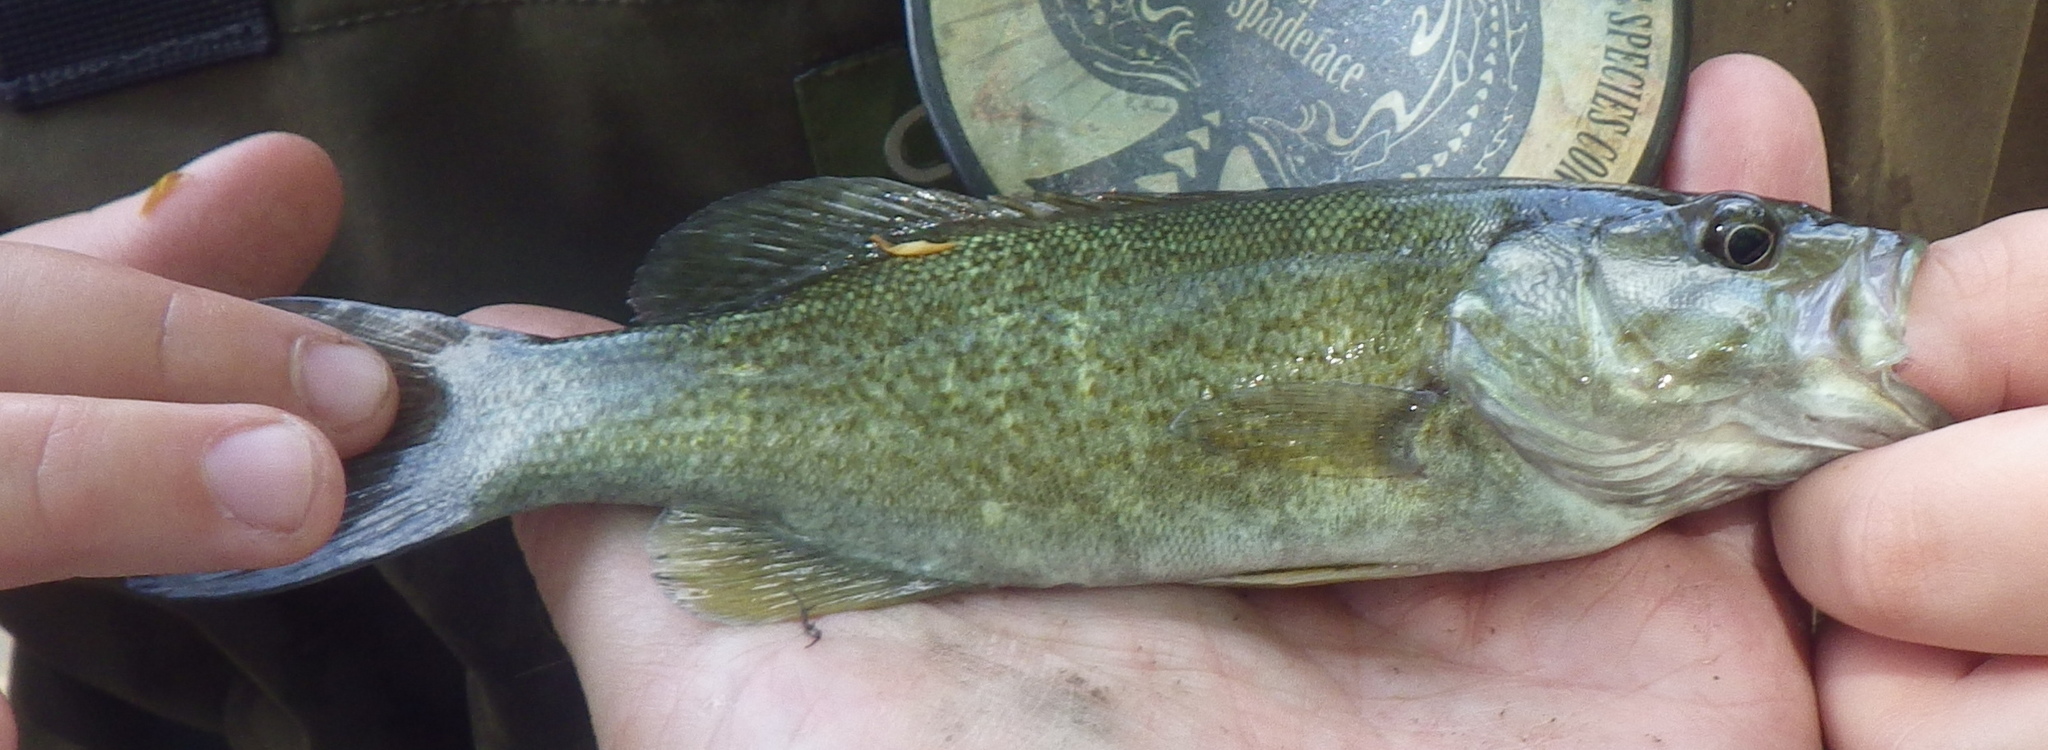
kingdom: Animalia
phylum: Chordata
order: Perciformes
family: Centrarchidae
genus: Micropterus
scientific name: Micropterus dolomieu
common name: Smallmouth bass
